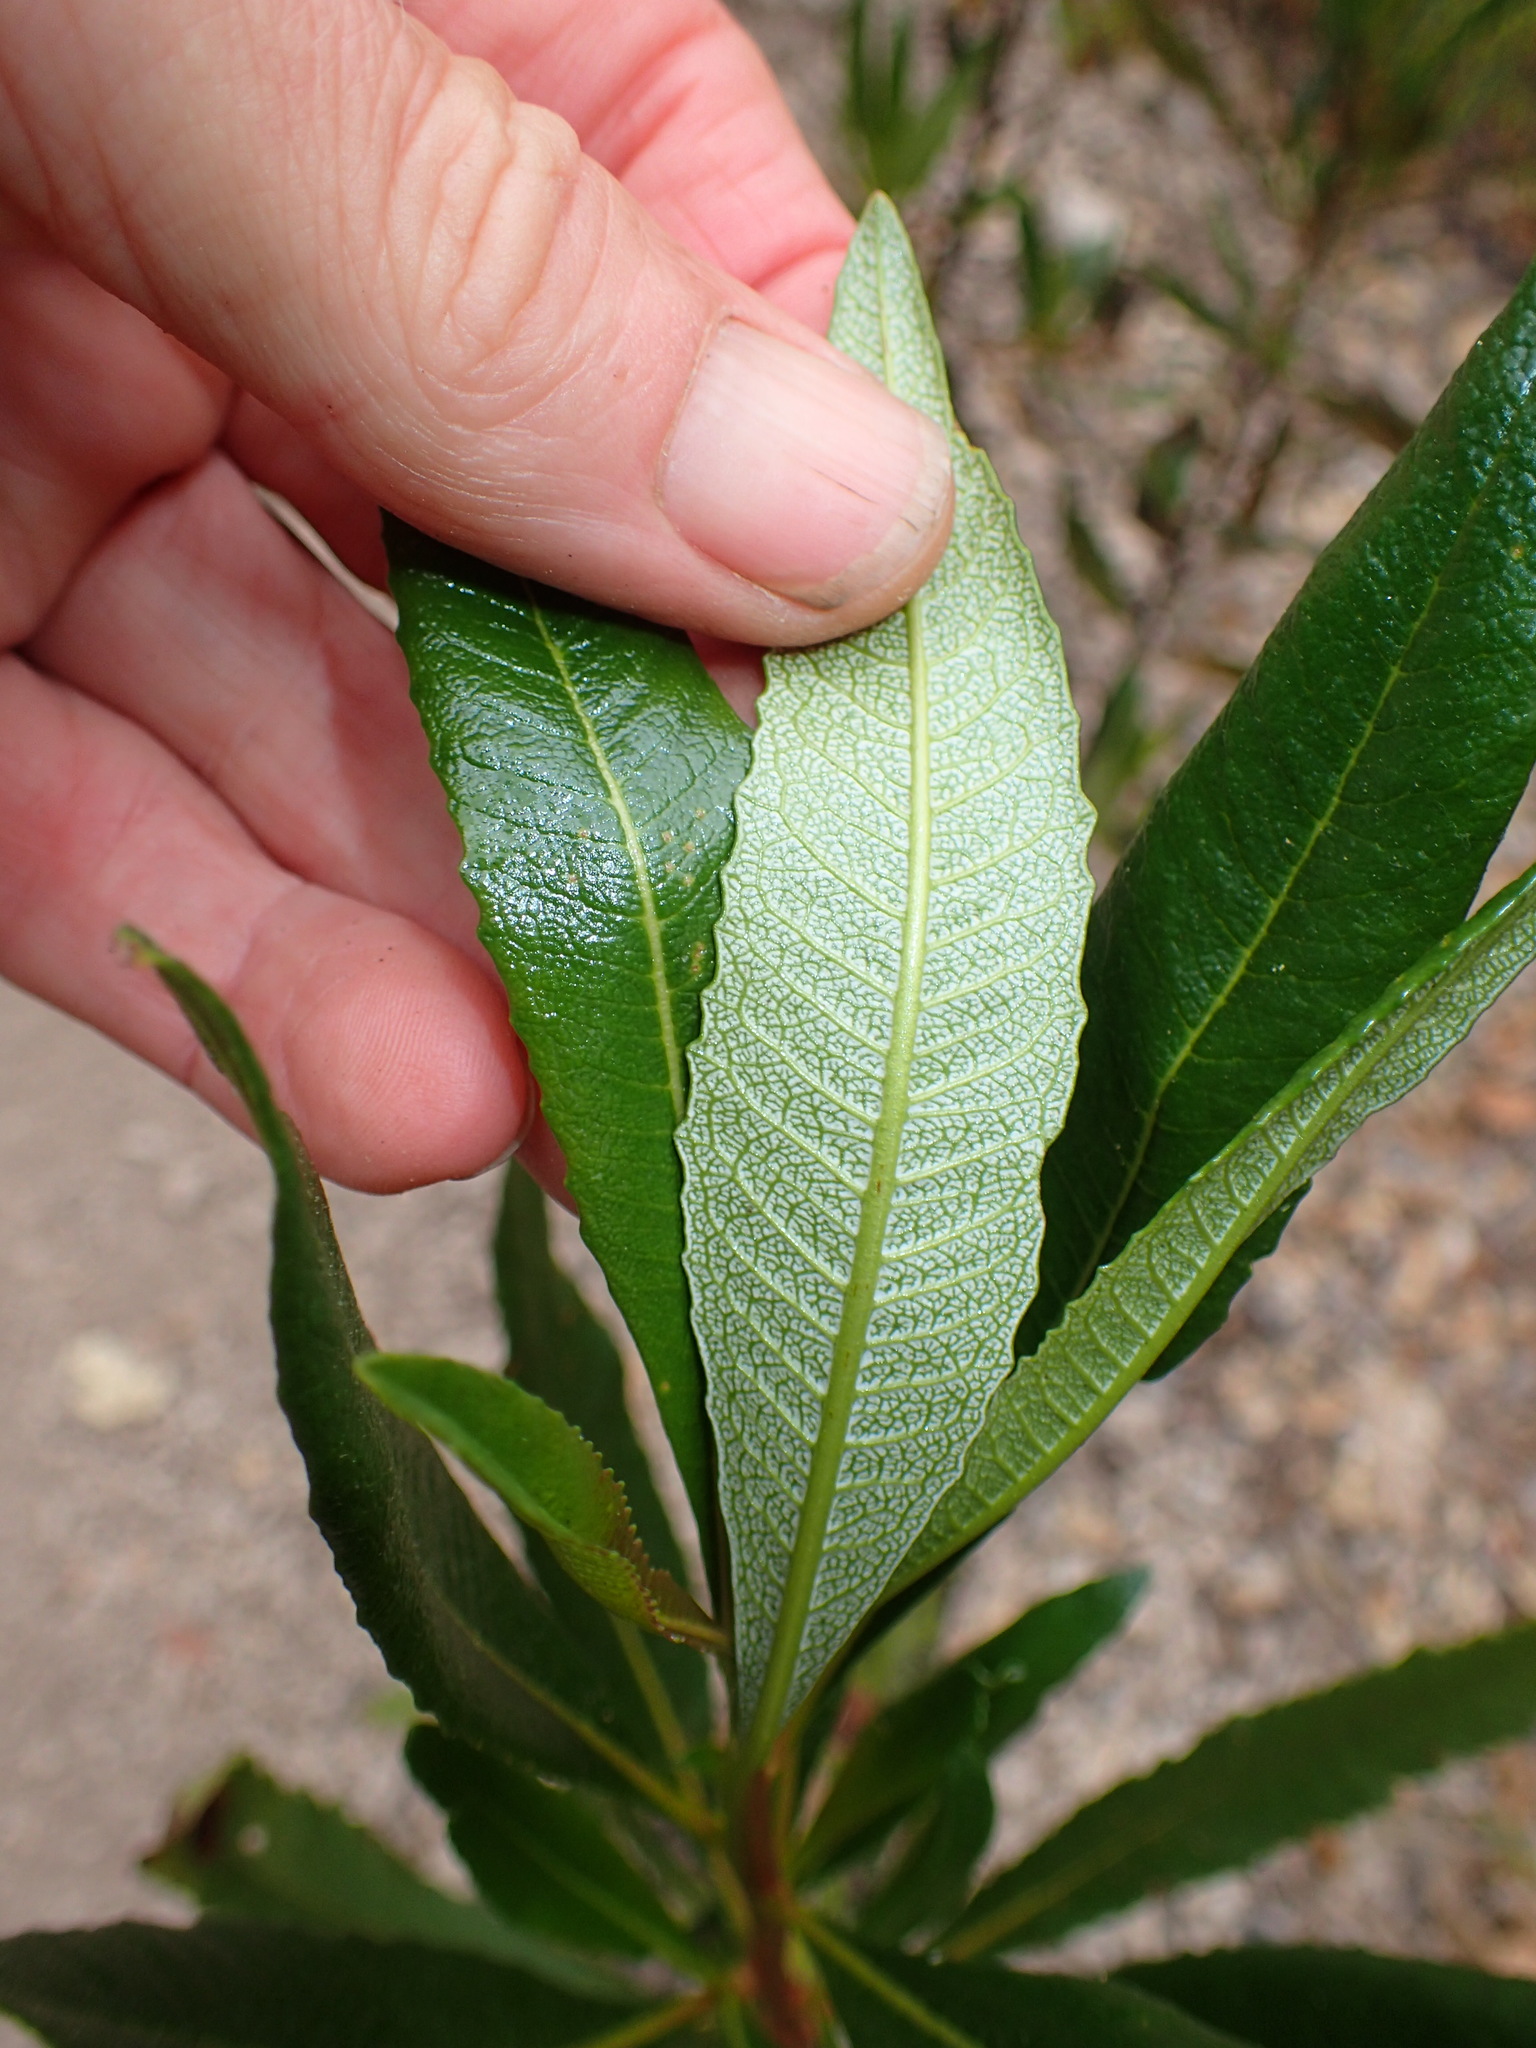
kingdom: Plantae
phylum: Tracheophyta
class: Magnoliopsida
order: Boraginales
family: Namaceae
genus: Eriodictyon
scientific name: Eriodictyon californicum
